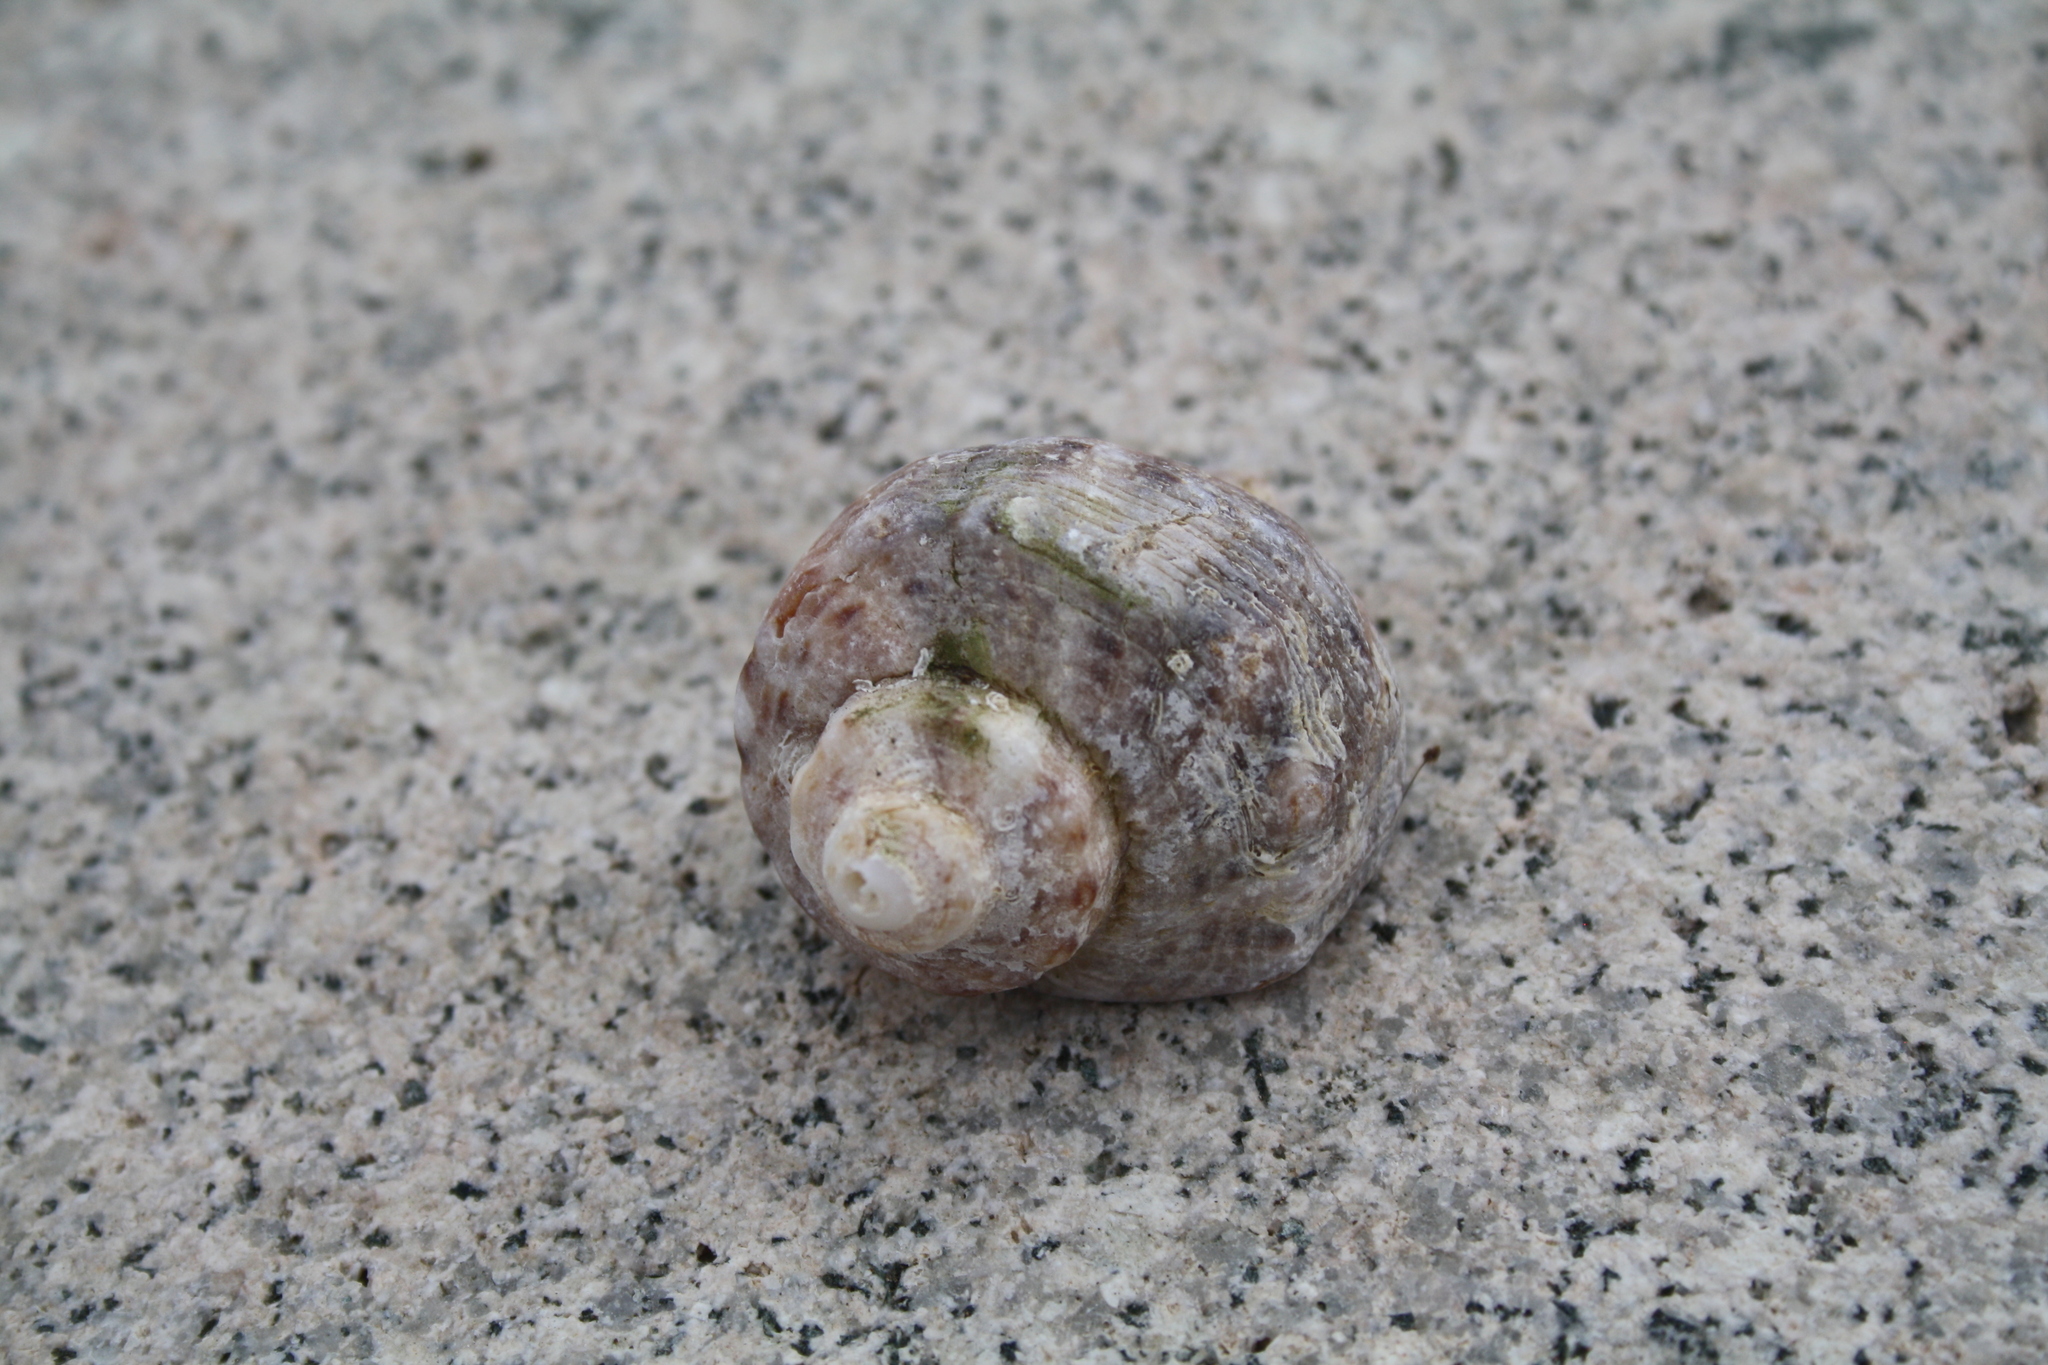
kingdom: Animalia
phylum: Mollusca
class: Gastropoda
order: Neogastropoda
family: Muricidae
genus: Rapana
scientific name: Rapana venosa
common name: Veined rapa whelk
